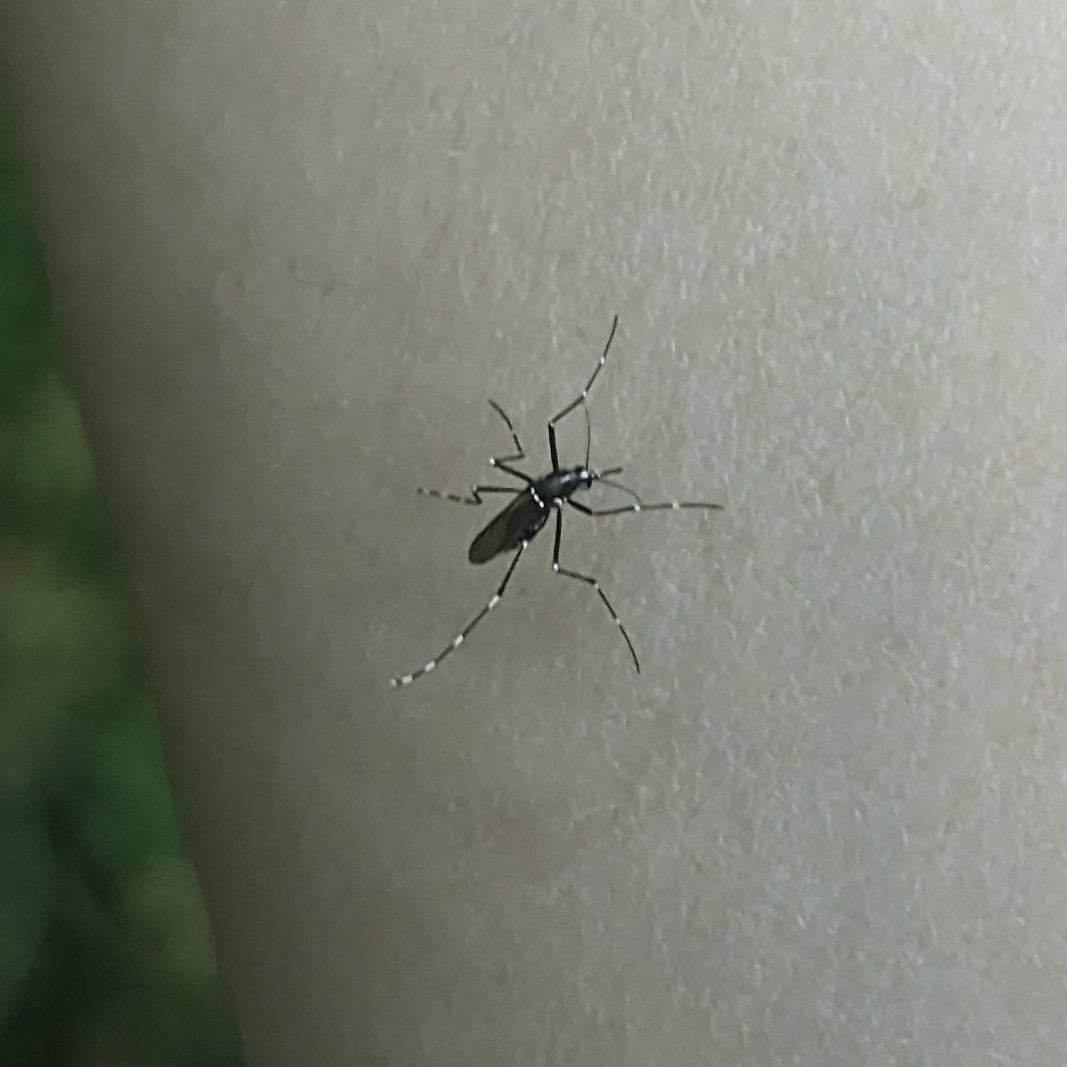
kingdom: Animalia
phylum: Arthropoda
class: Insecta
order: Diptera
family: Culicidae
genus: Aedes
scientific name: Aedes albopictus
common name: Tiger mosquito
